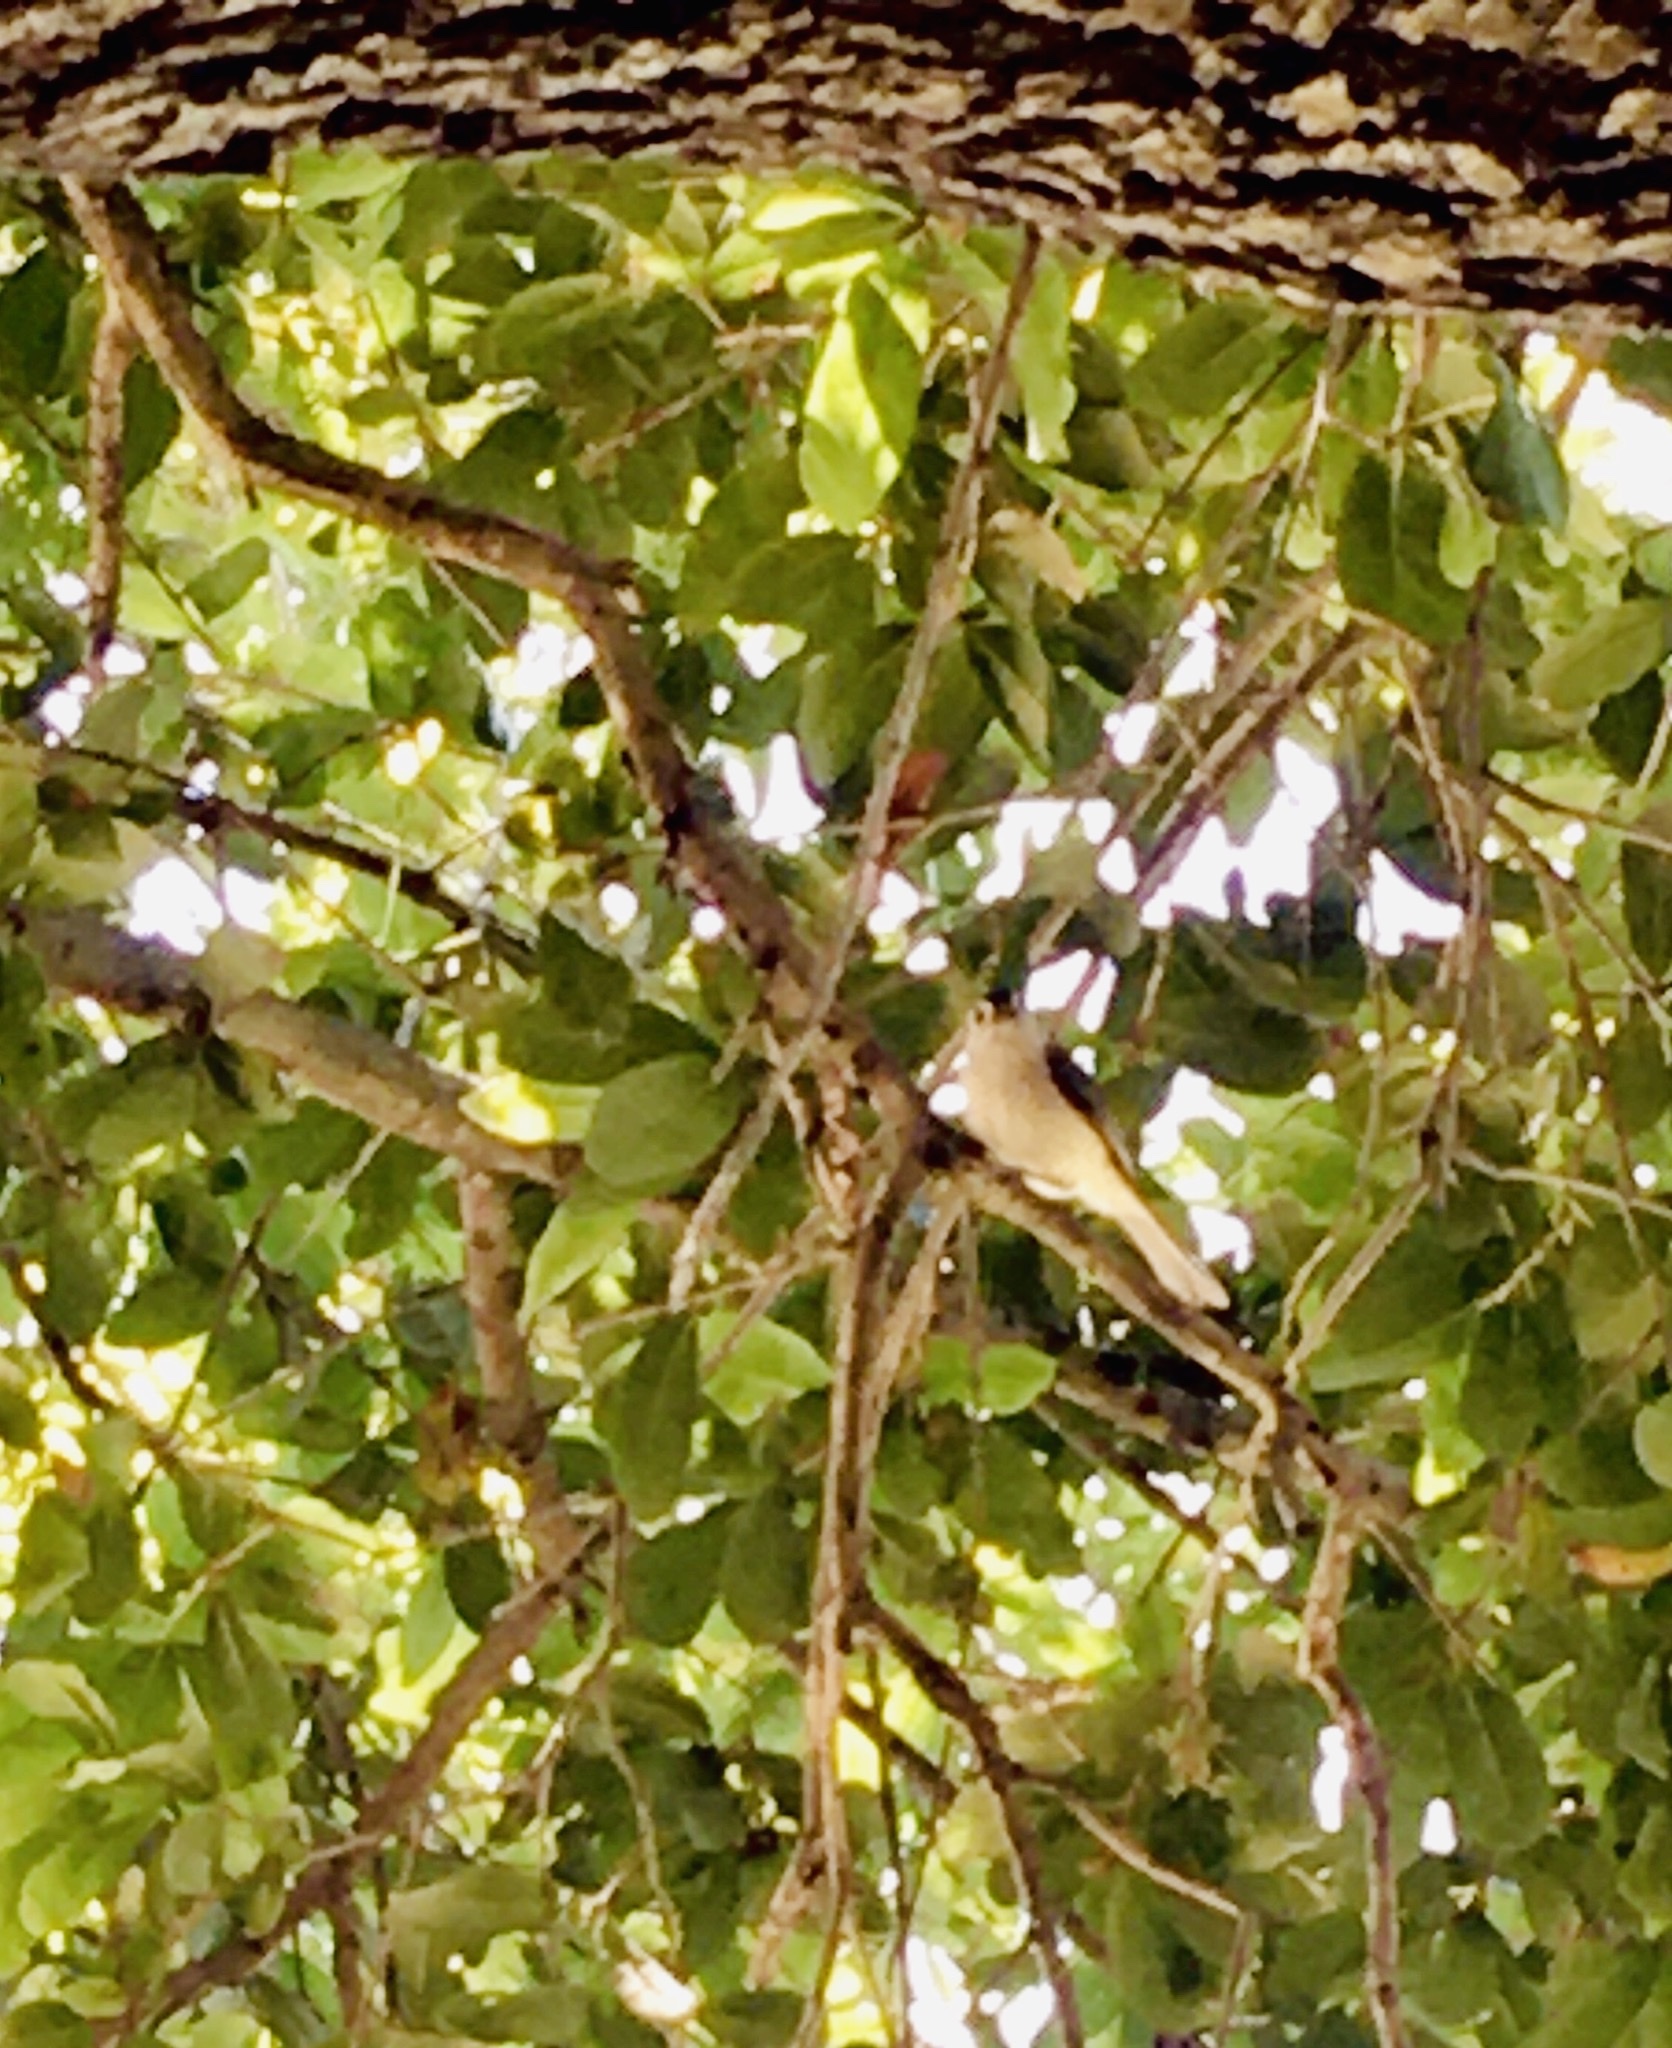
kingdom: Animalia
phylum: Chordata
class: Aves
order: Passeriformes
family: Paridae
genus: Baeolophus
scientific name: Baeolophus bicolor
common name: Tufted titmouse
